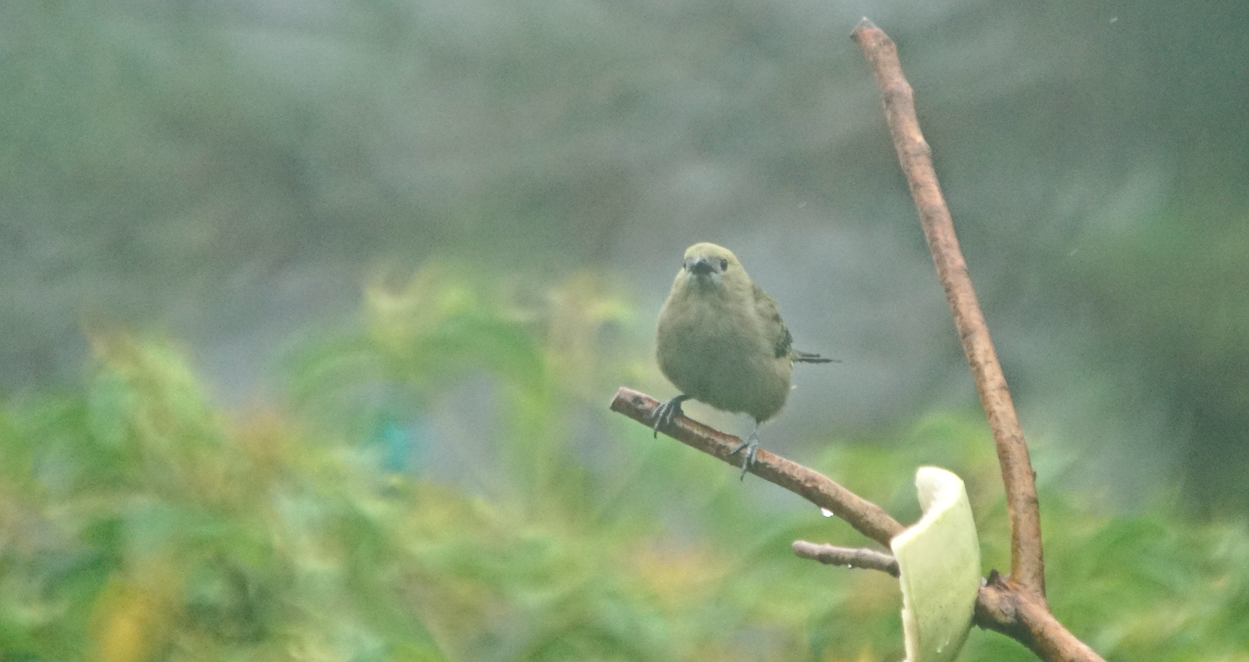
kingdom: Animalia
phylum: Chordata
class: Aves
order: Passeriformes
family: Thraupidae
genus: Thraupis
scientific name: Thraupis palmarum
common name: Palm tanager
